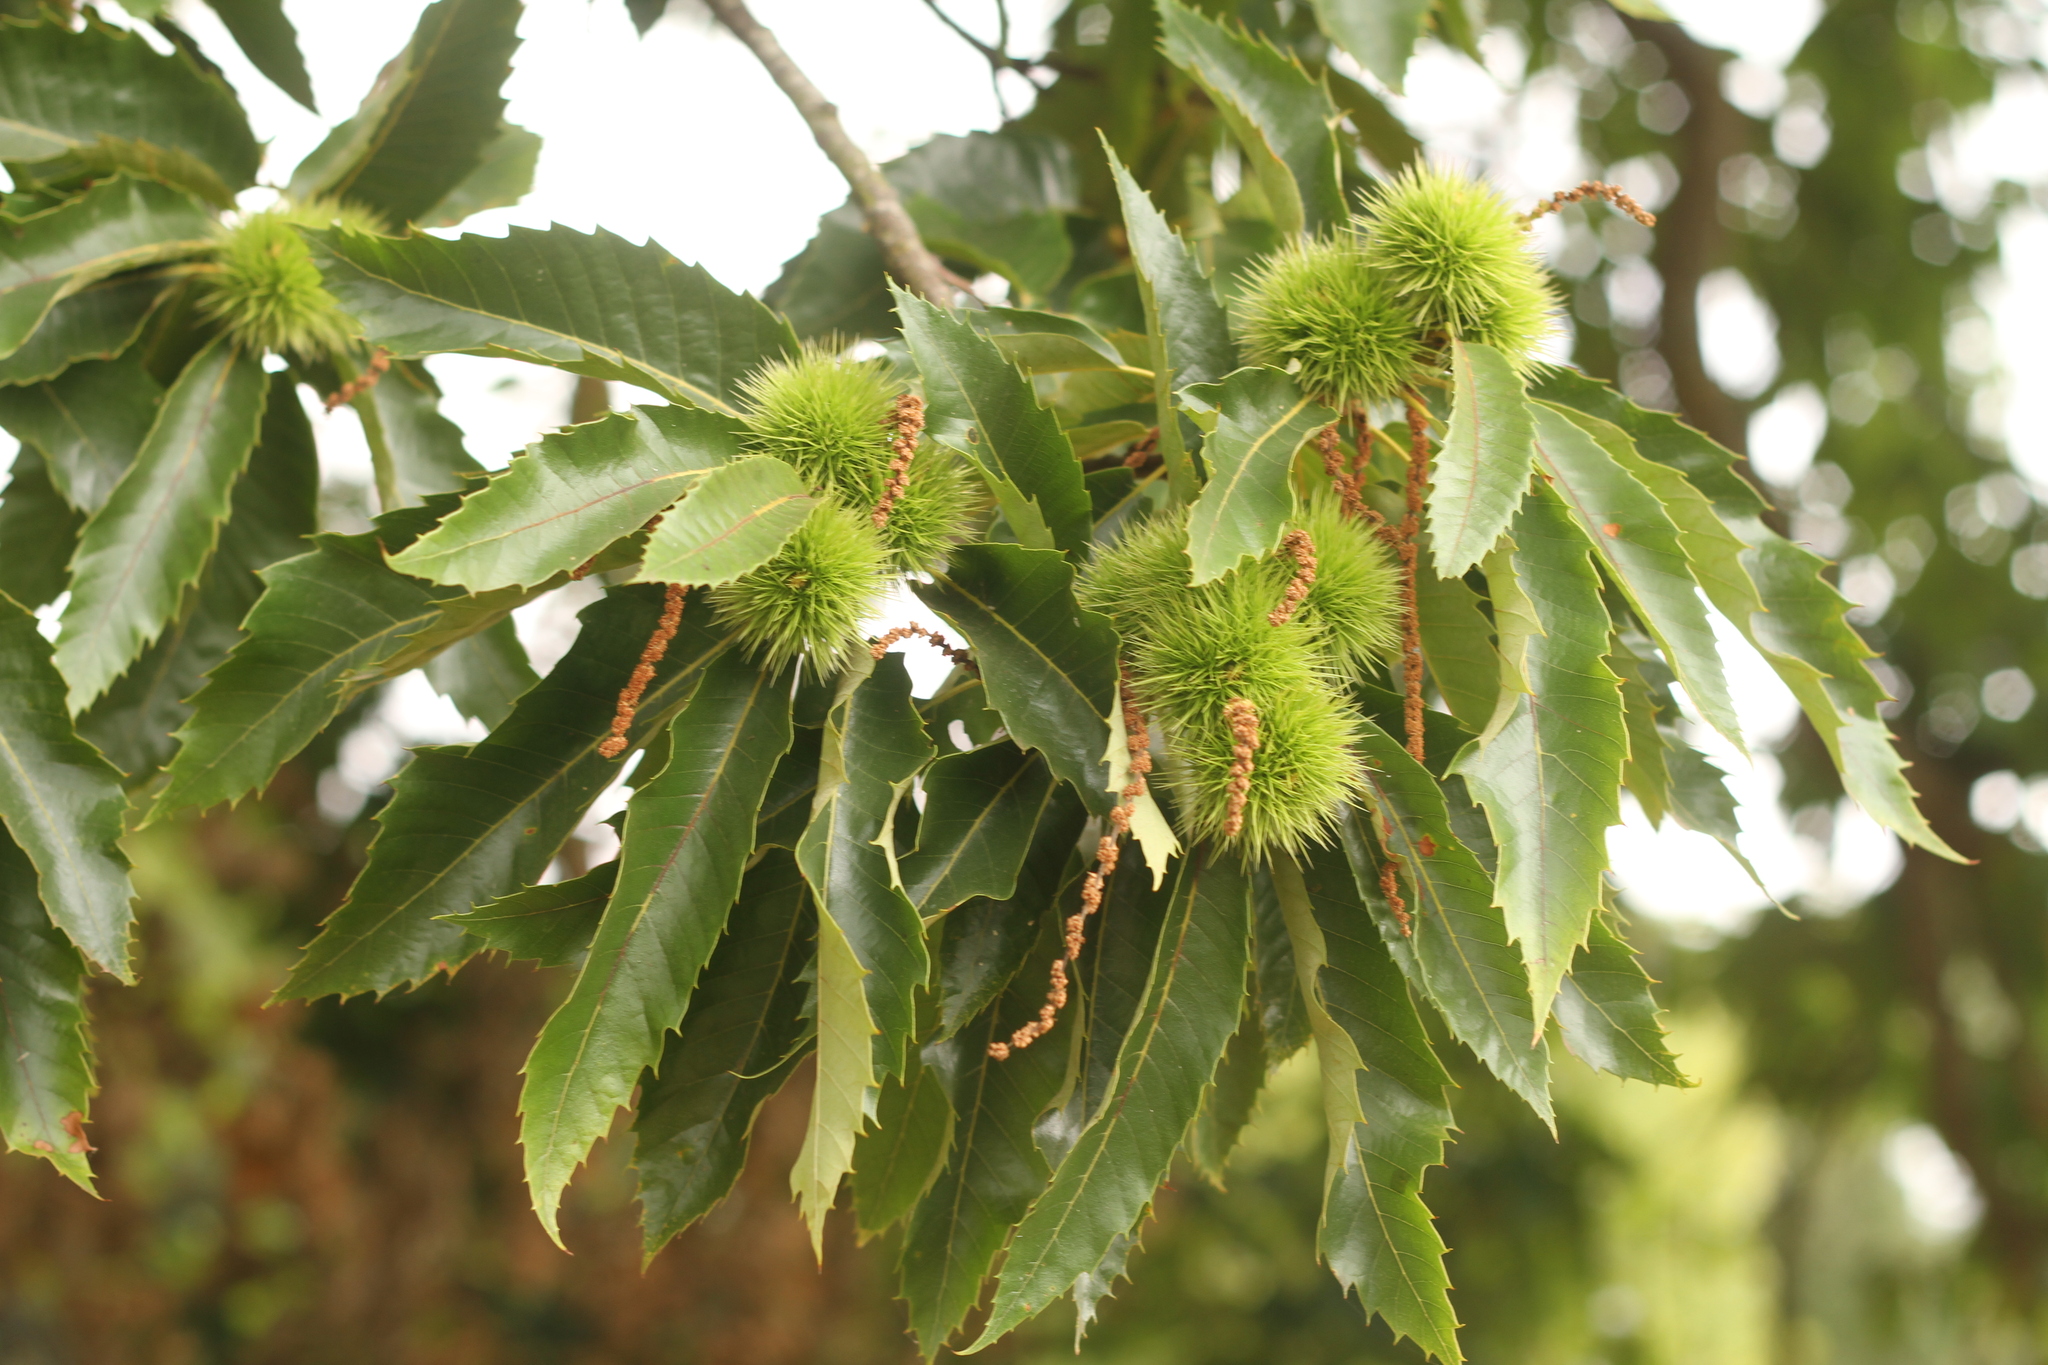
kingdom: Plantae
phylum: Tracheophyta
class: Magnoliopsida
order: Fagales
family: Fagaceae
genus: Castanea
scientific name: Castanea sativa
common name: Sweet chestnut
